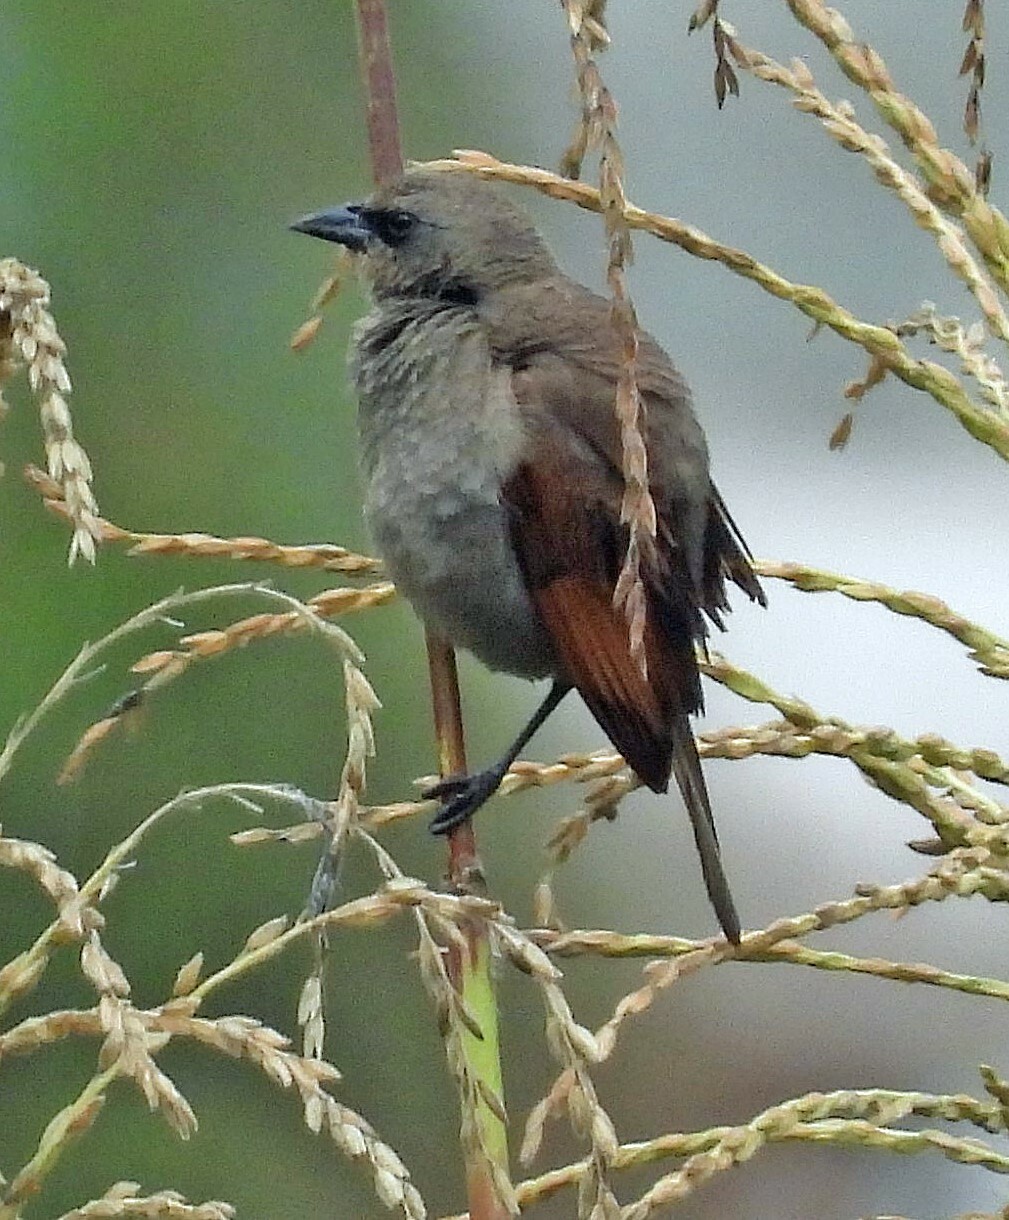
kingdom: Animalia
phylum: Chordata
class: Aves
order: Passeriformes
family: Icteridae
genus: Agelaioides
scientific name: Agelaioides badius
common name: Baywing
